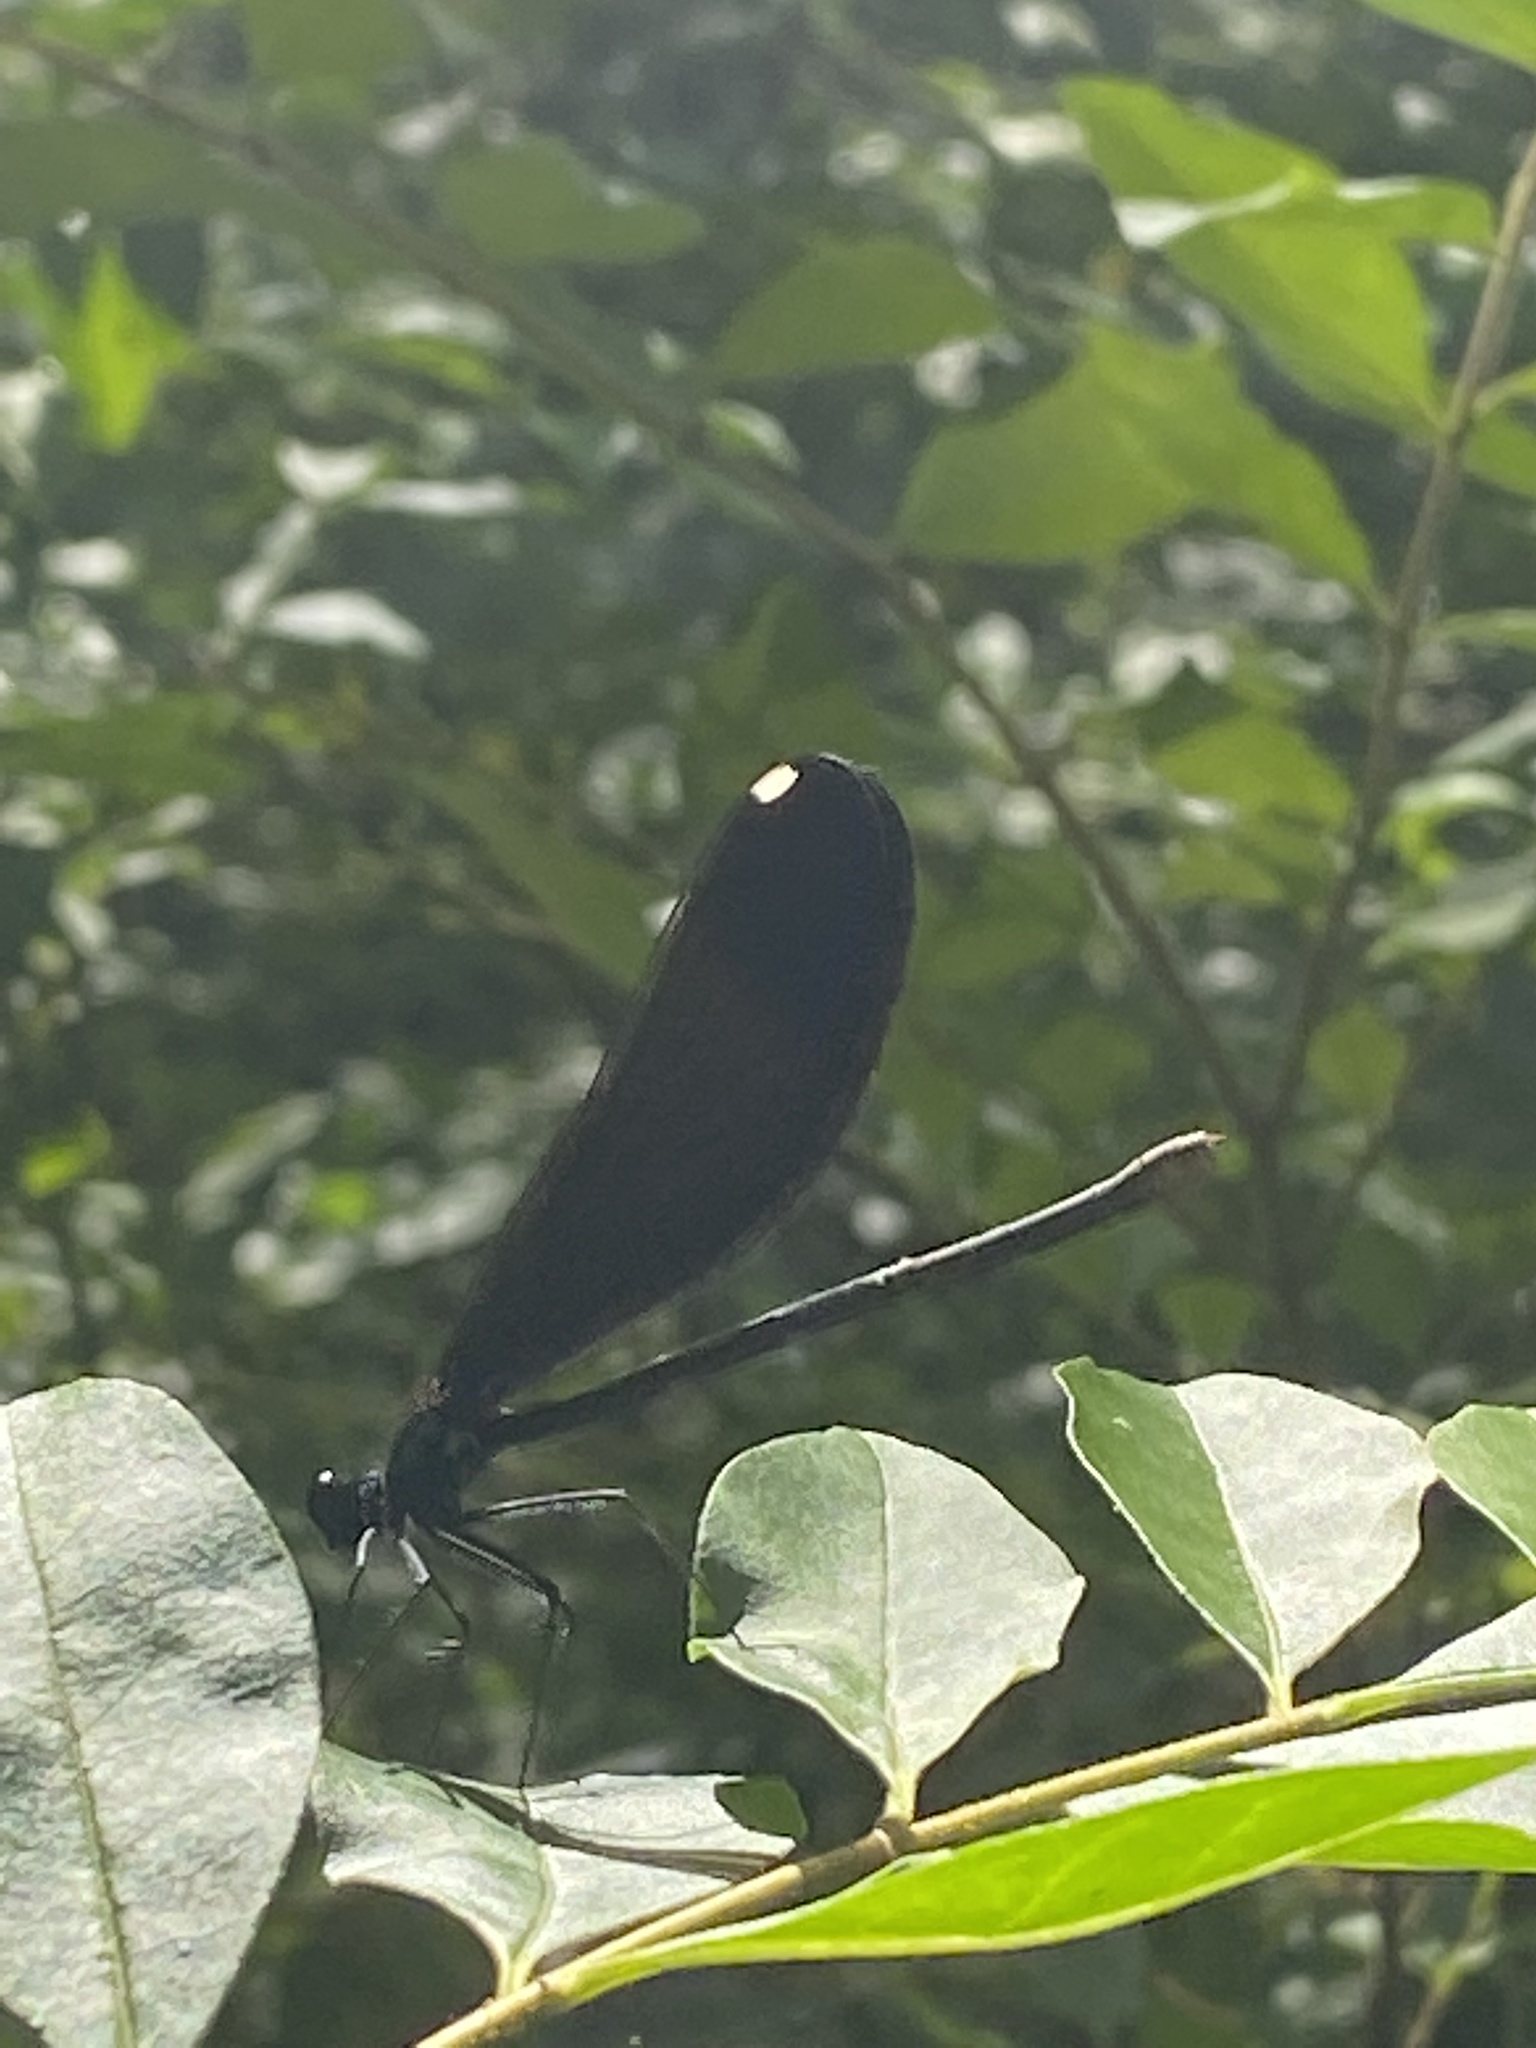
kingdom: Animalia
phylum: Arthropoda
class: Insecta
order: Odonata
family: Calopterygidae
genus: Calopteryx
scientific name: Calopteryx maculata
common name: Ebony jewelwing
